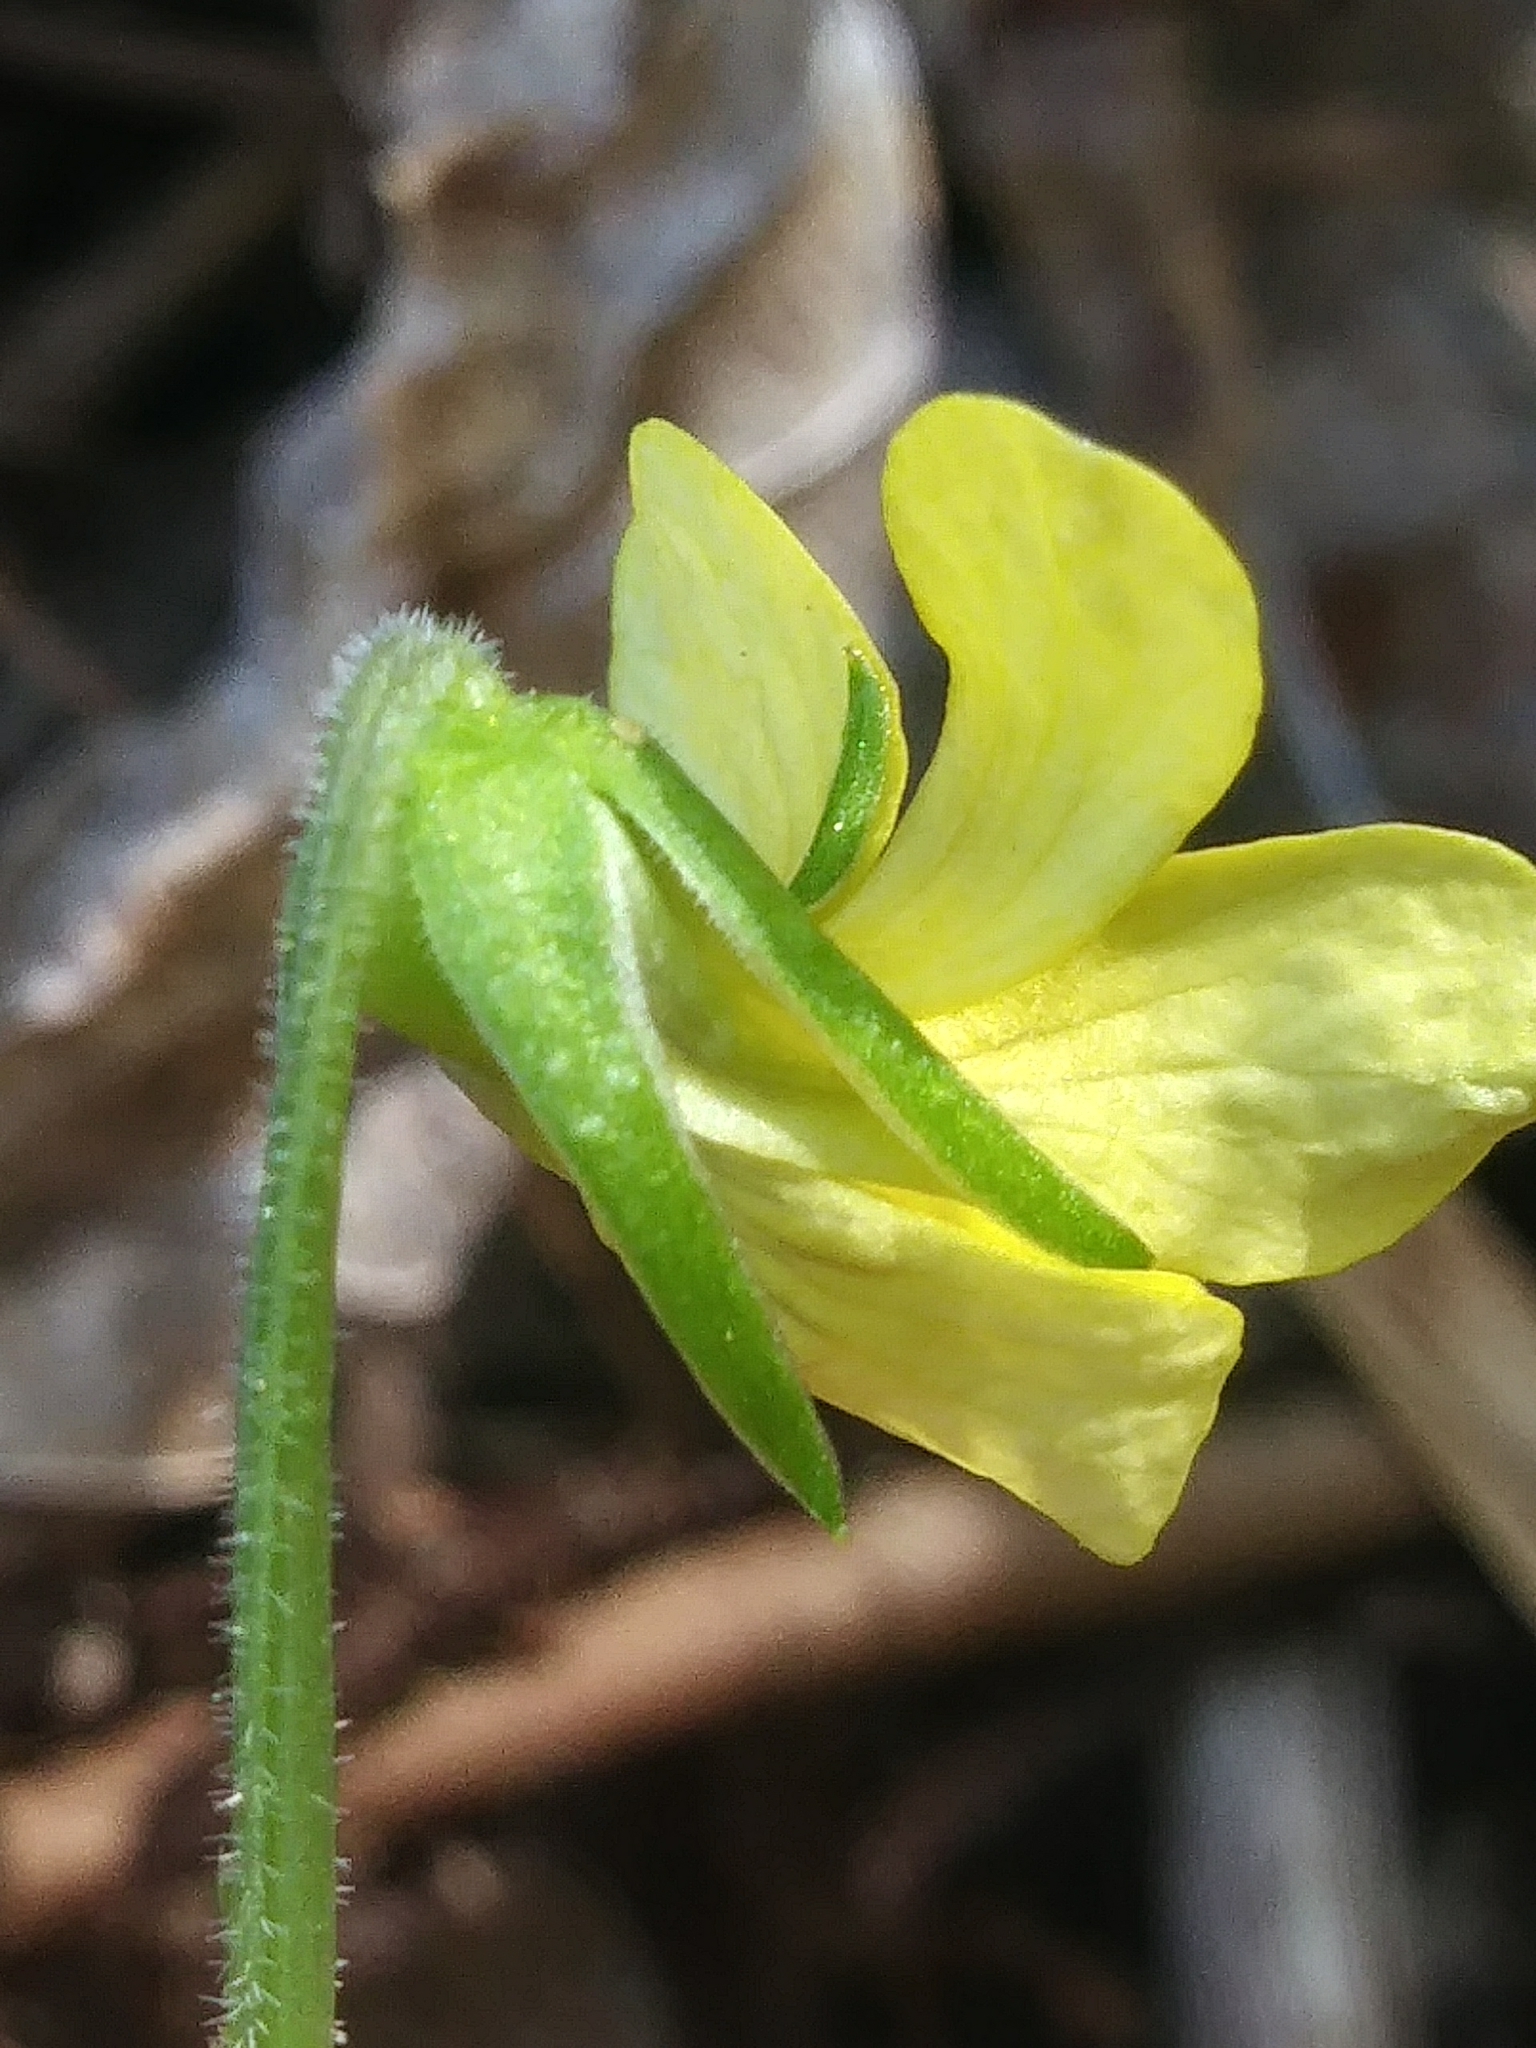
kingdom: Plantae
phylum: Tracheophyta
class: Magnoliopsida
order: Malpighiales
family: Violaceae
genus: Viola
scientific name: Viola eriocarpa
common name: Smooth yellow violet
